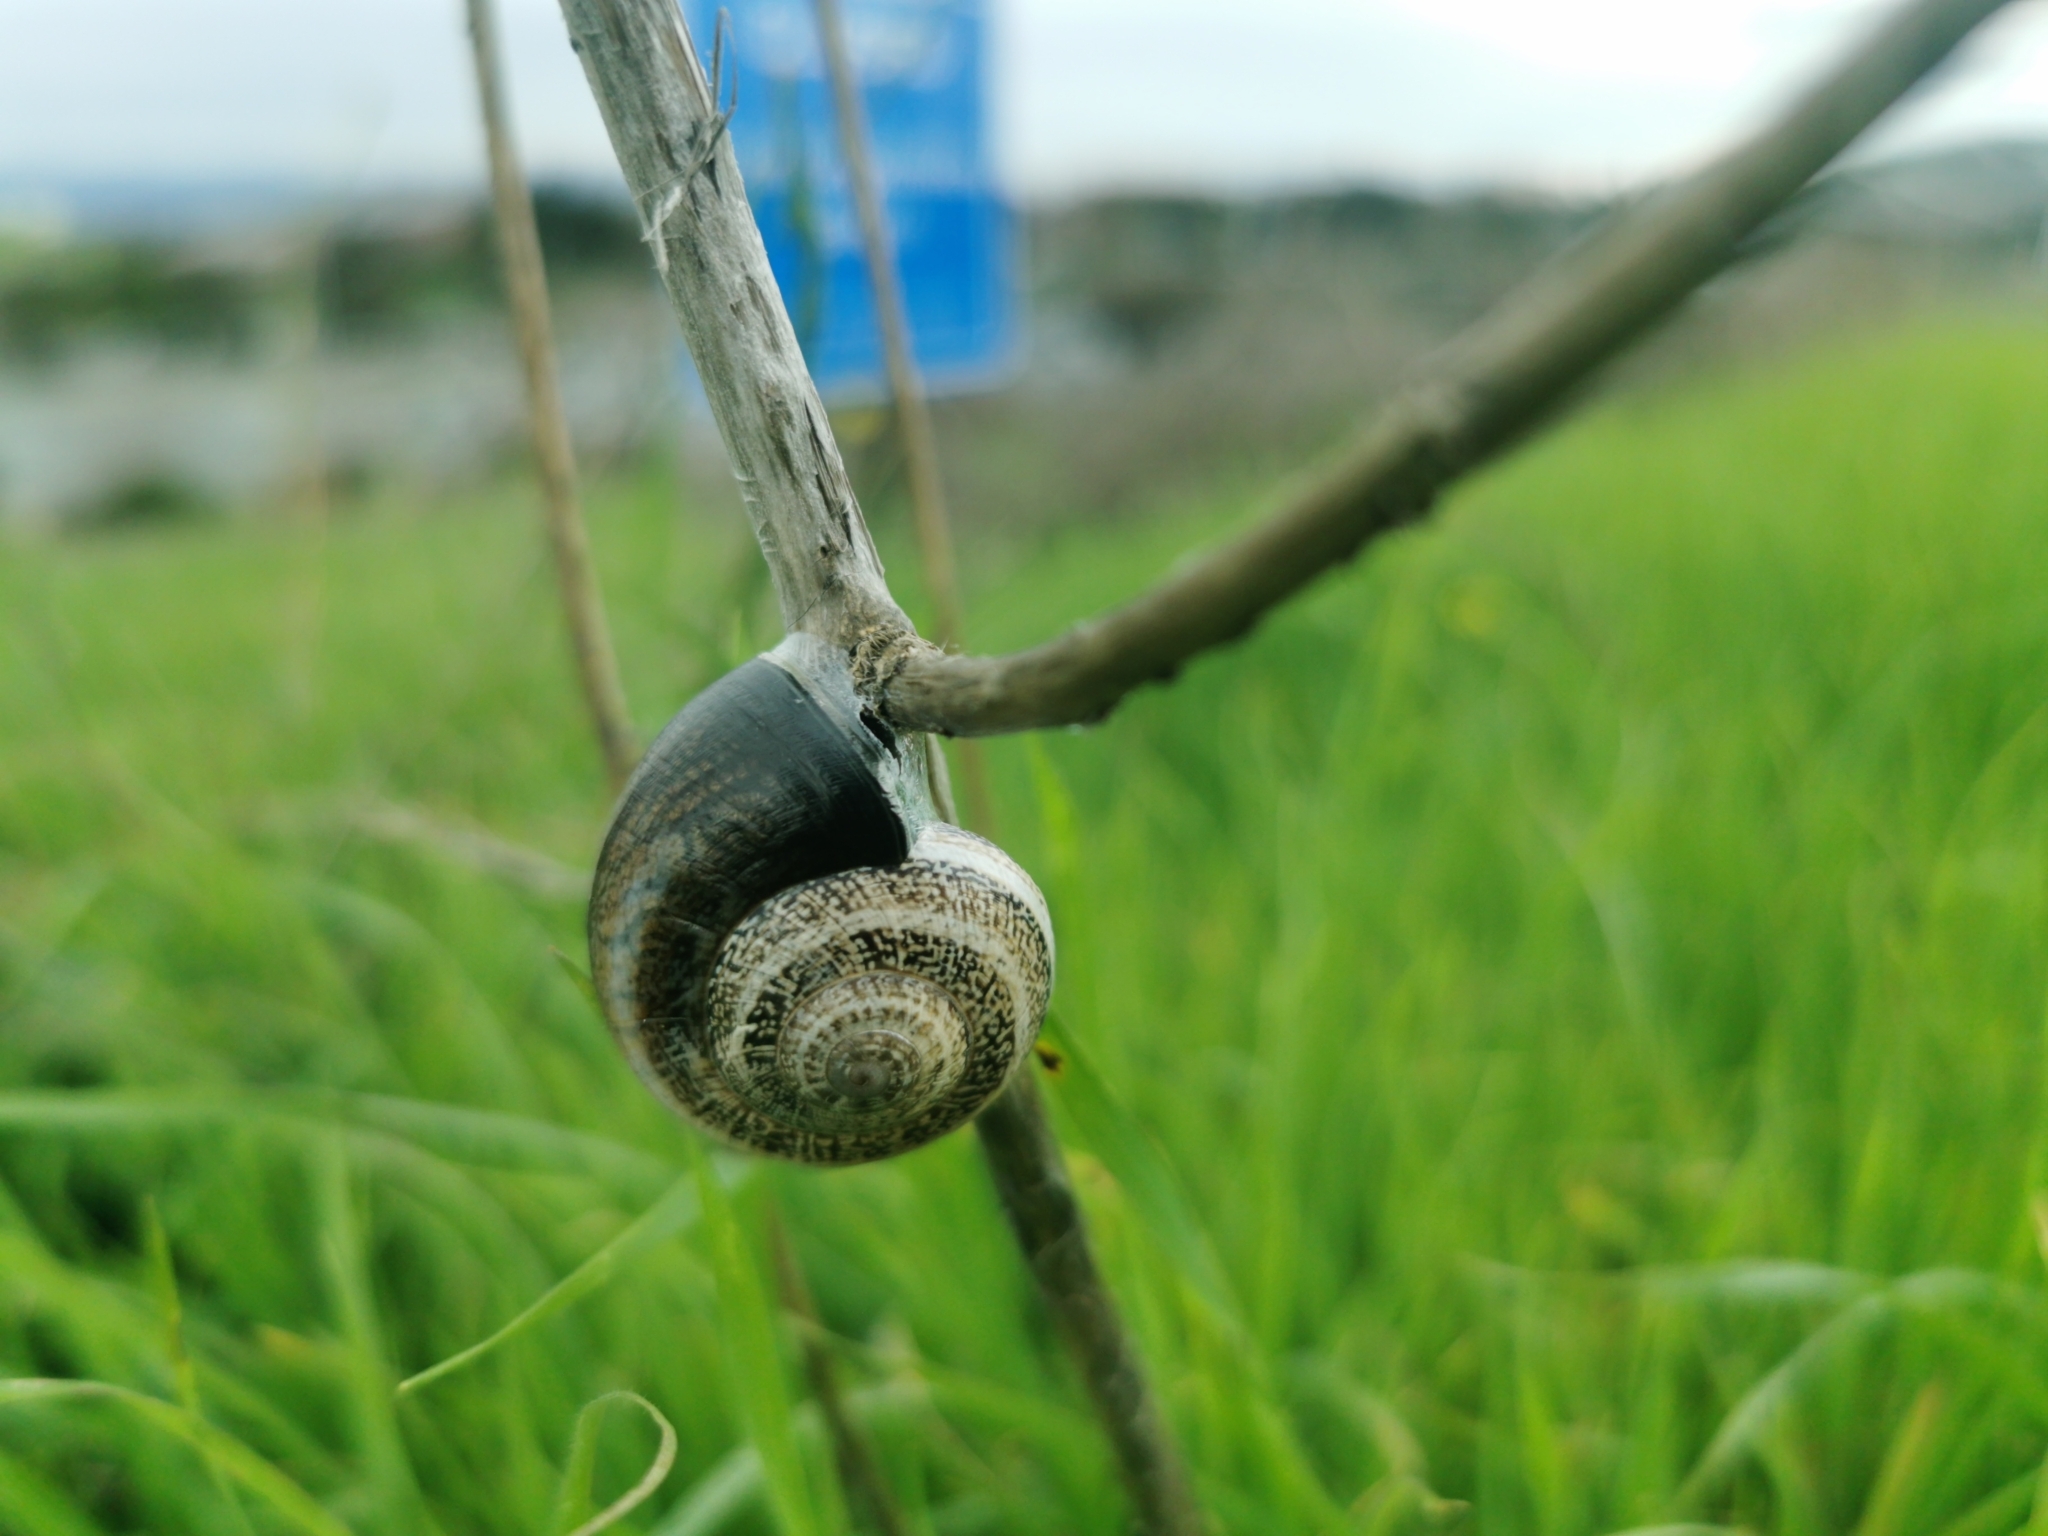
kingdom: Animalia
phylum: Mollusca
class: Gastropoda
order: Stylommatophora
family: Helicidae
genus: Otala
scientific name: Otala lactea
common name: Milk snail
